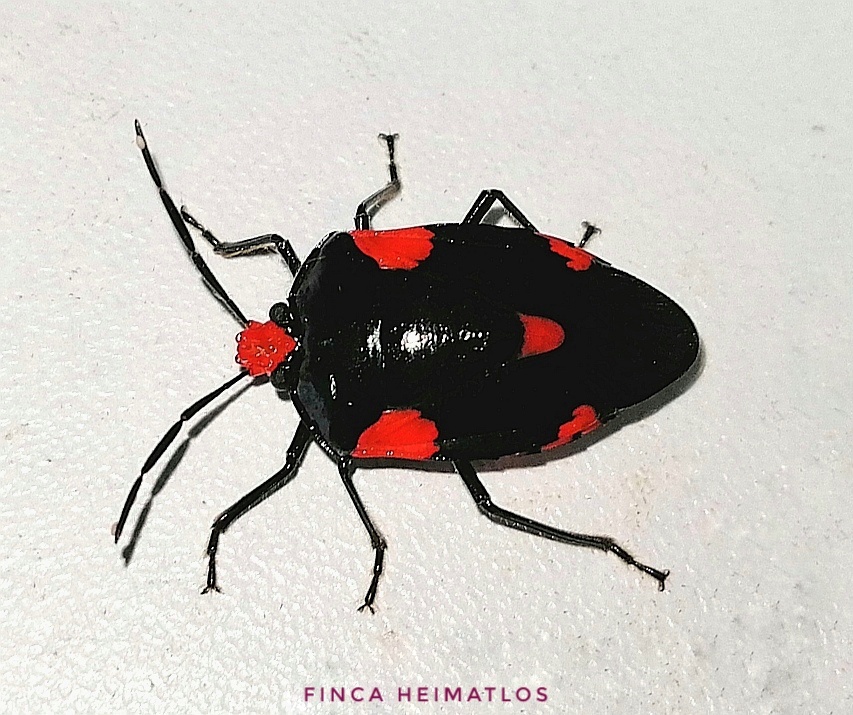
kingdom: Animalia
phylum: Arthropoda
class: Insecta
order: Hemiptera
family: Pentatomidae
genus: Arocera
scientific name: Arocera elongata
